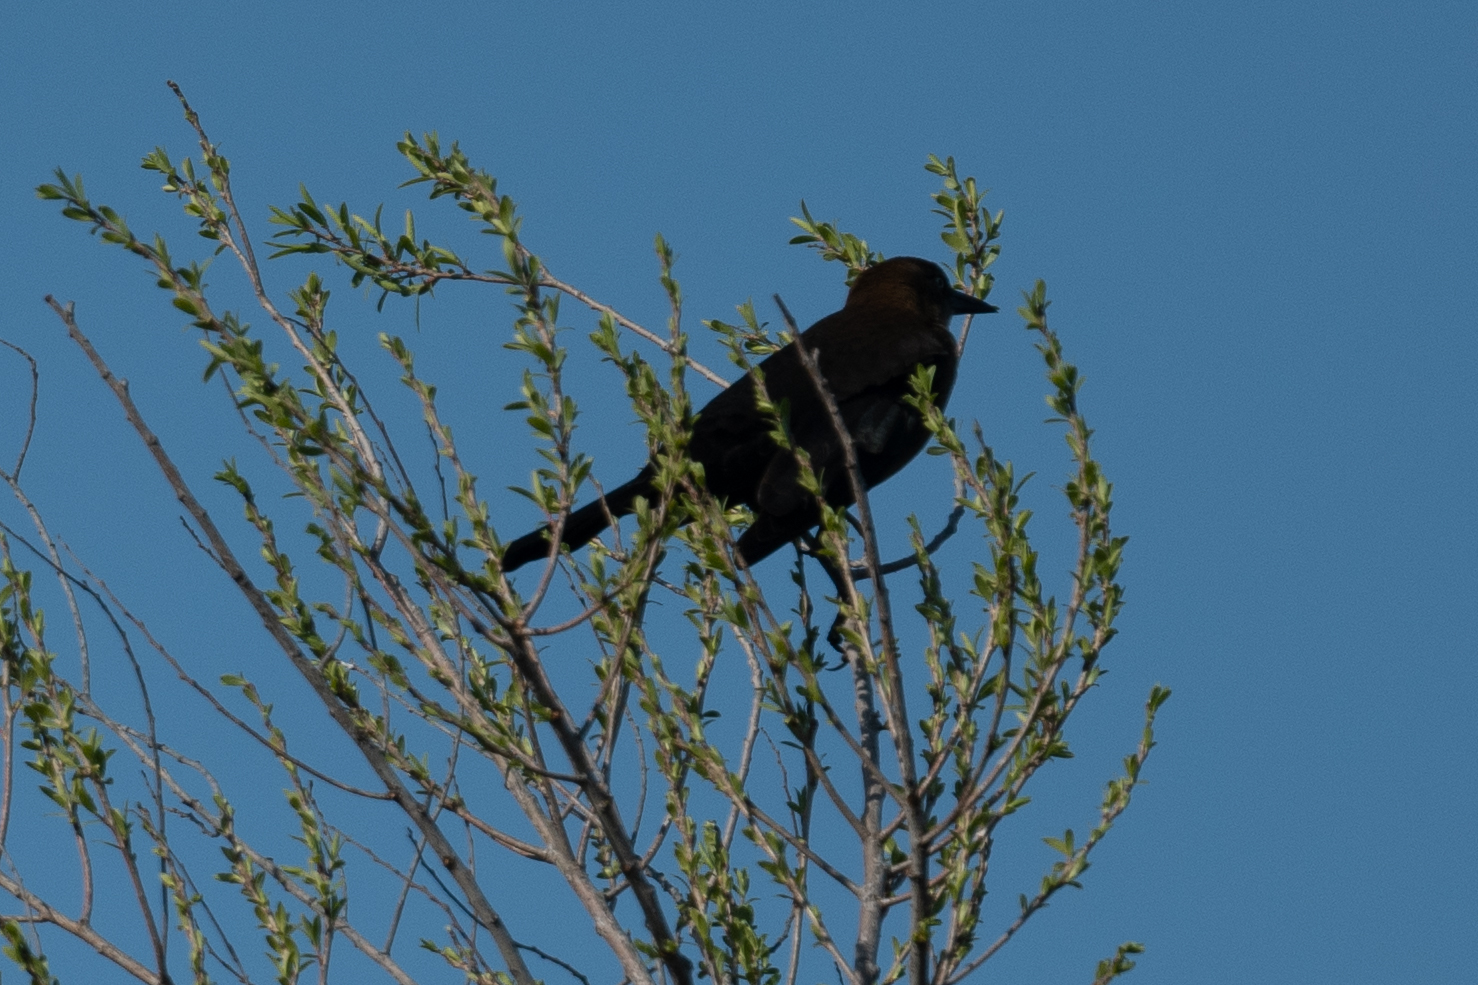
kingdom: Animalia
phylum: Chordata
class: Aves
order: Passeriformes
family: Icteridae
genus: Quiscalus
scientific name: Quiscalus mexicanus
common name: Great-tailed grackle
